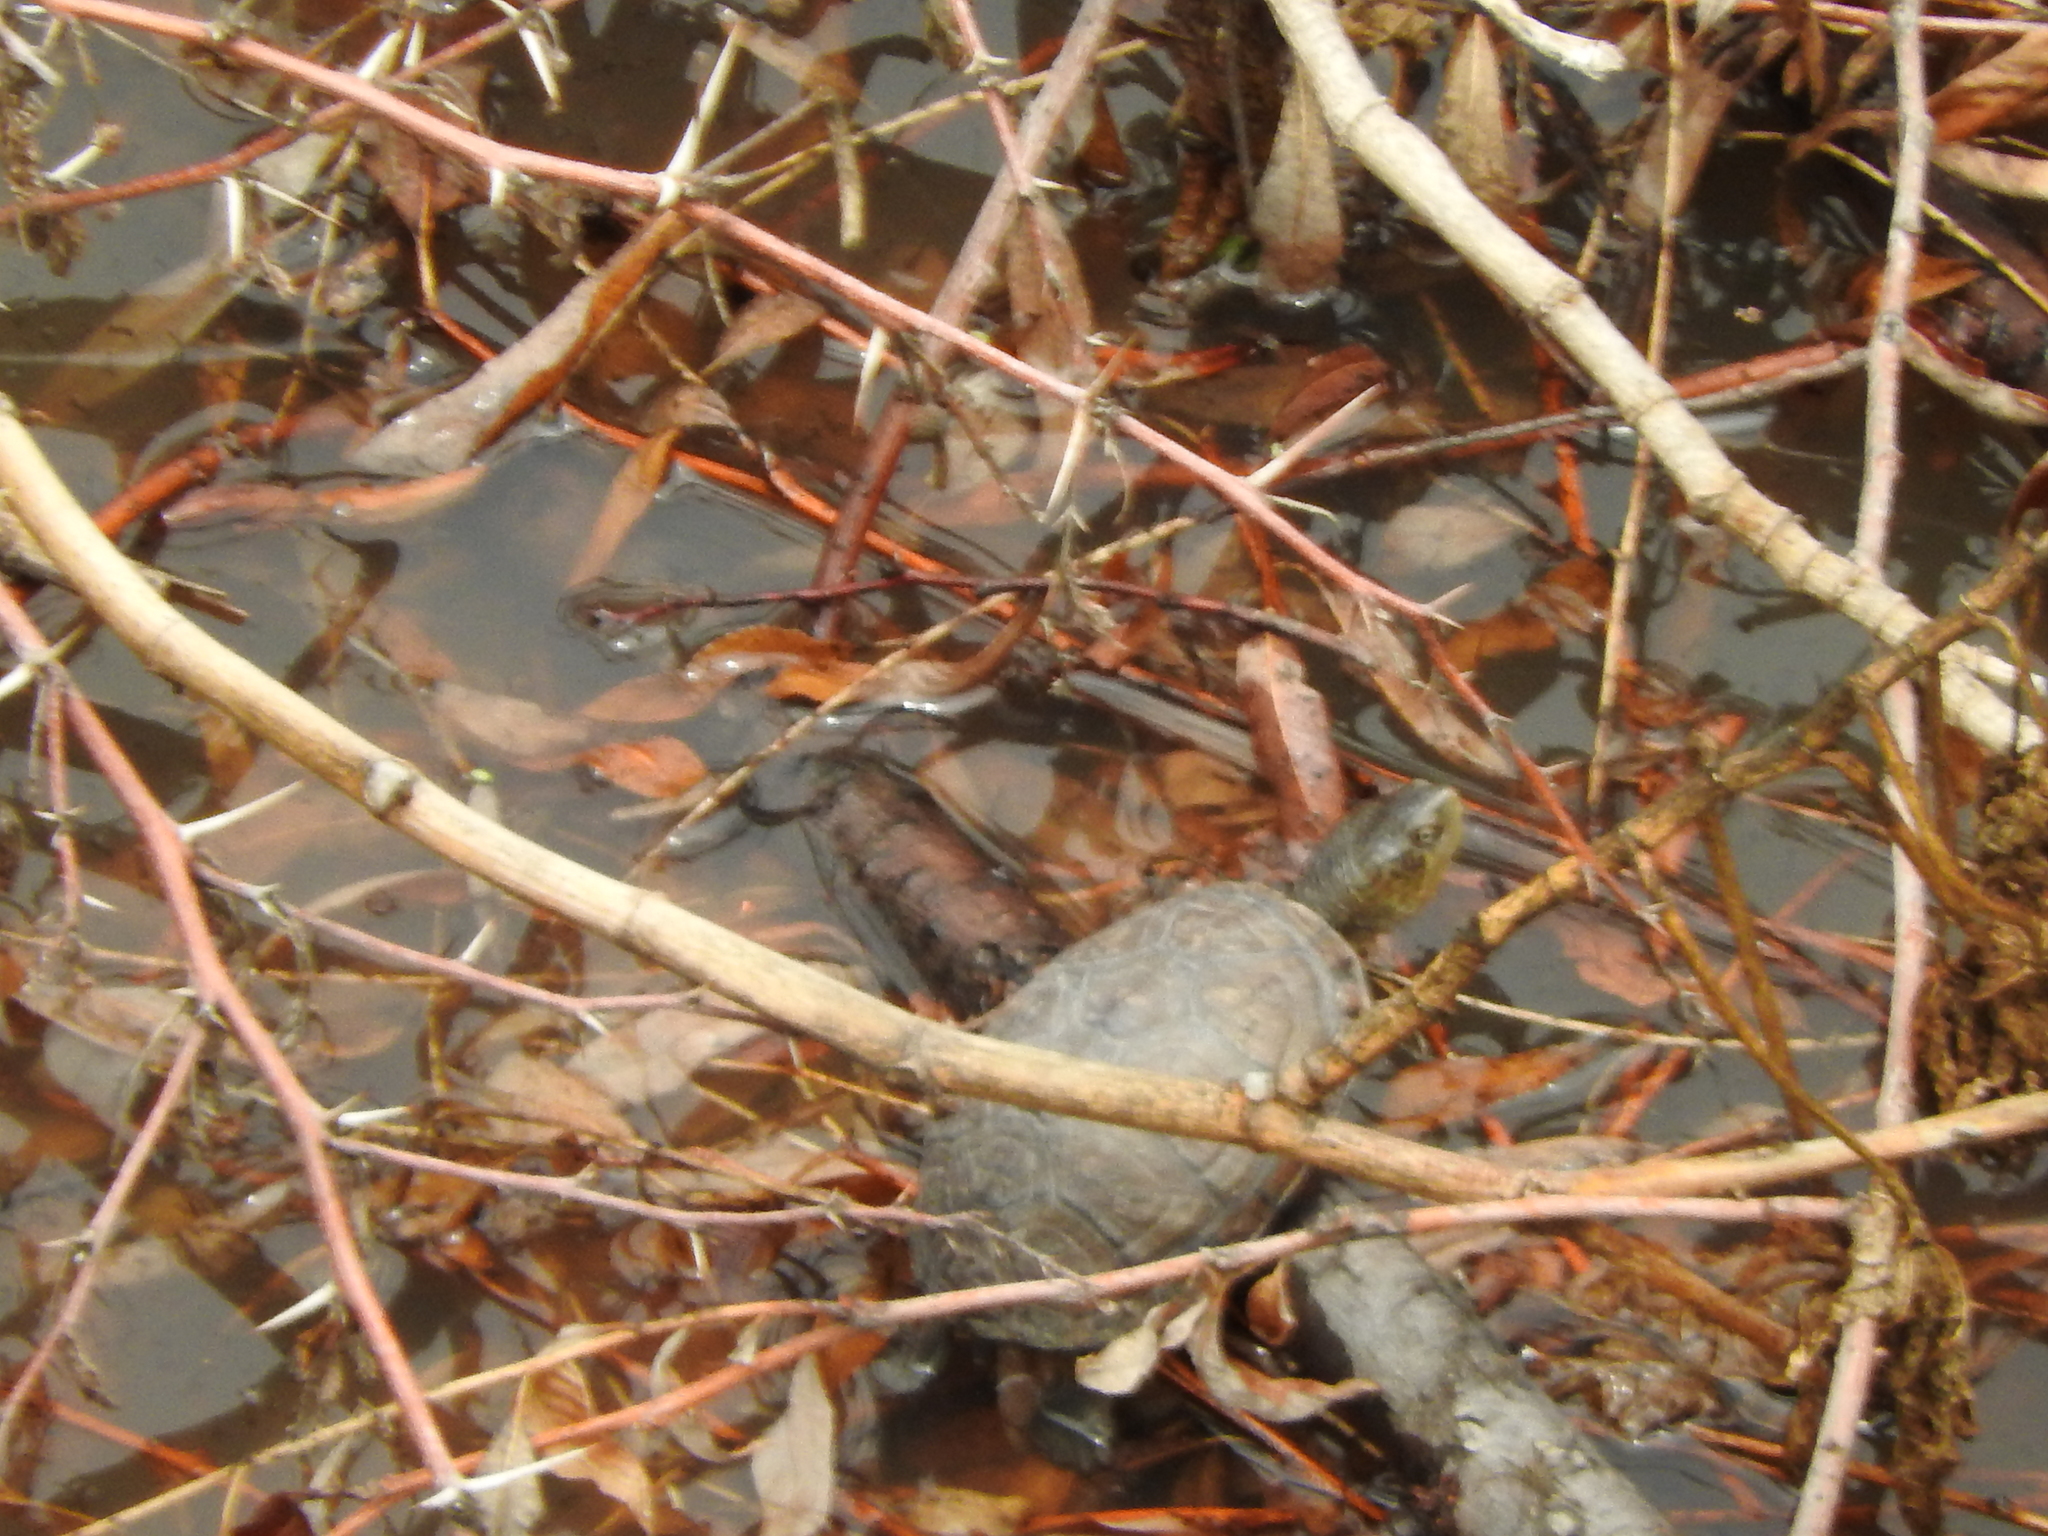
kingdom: Animalia
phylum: Chordata
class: Testudines
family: Kinosternidae
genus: Kinosternon
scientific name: Kinosternon integrum
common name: Mexican mud turtle
